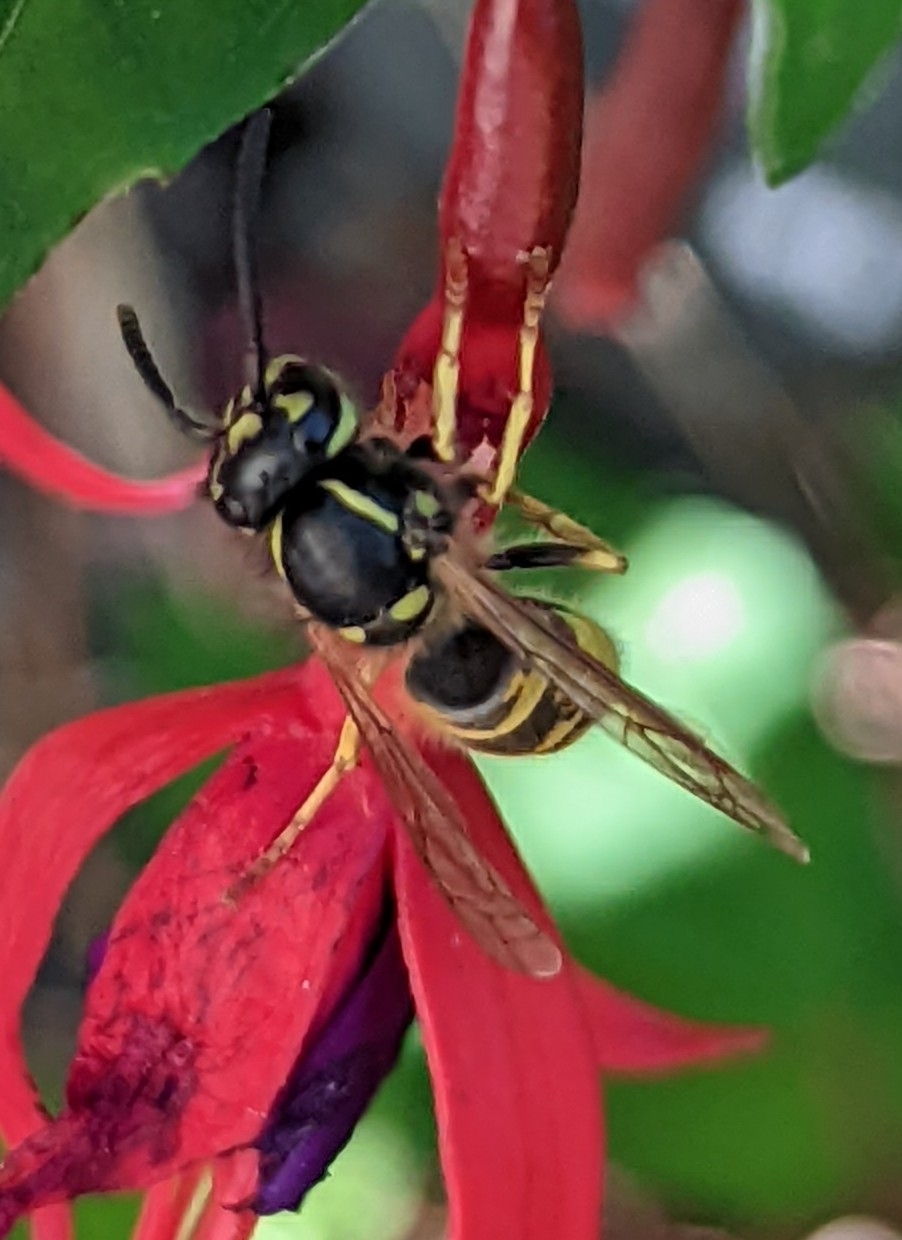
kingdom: Animalia
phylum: Arthropoda
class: Insecta
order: Hymenoptera
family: Vespidae
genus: Vespula
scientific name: Vespula vulgaris
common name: Common wasp
